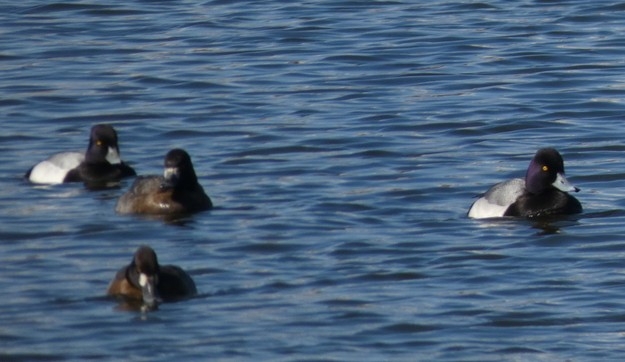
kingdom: Animalia
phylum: Chordata
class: Aves
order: Anseriformes
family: Anatidae
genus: Aythya
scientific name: Aythya affinis
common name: Lesser scaup
